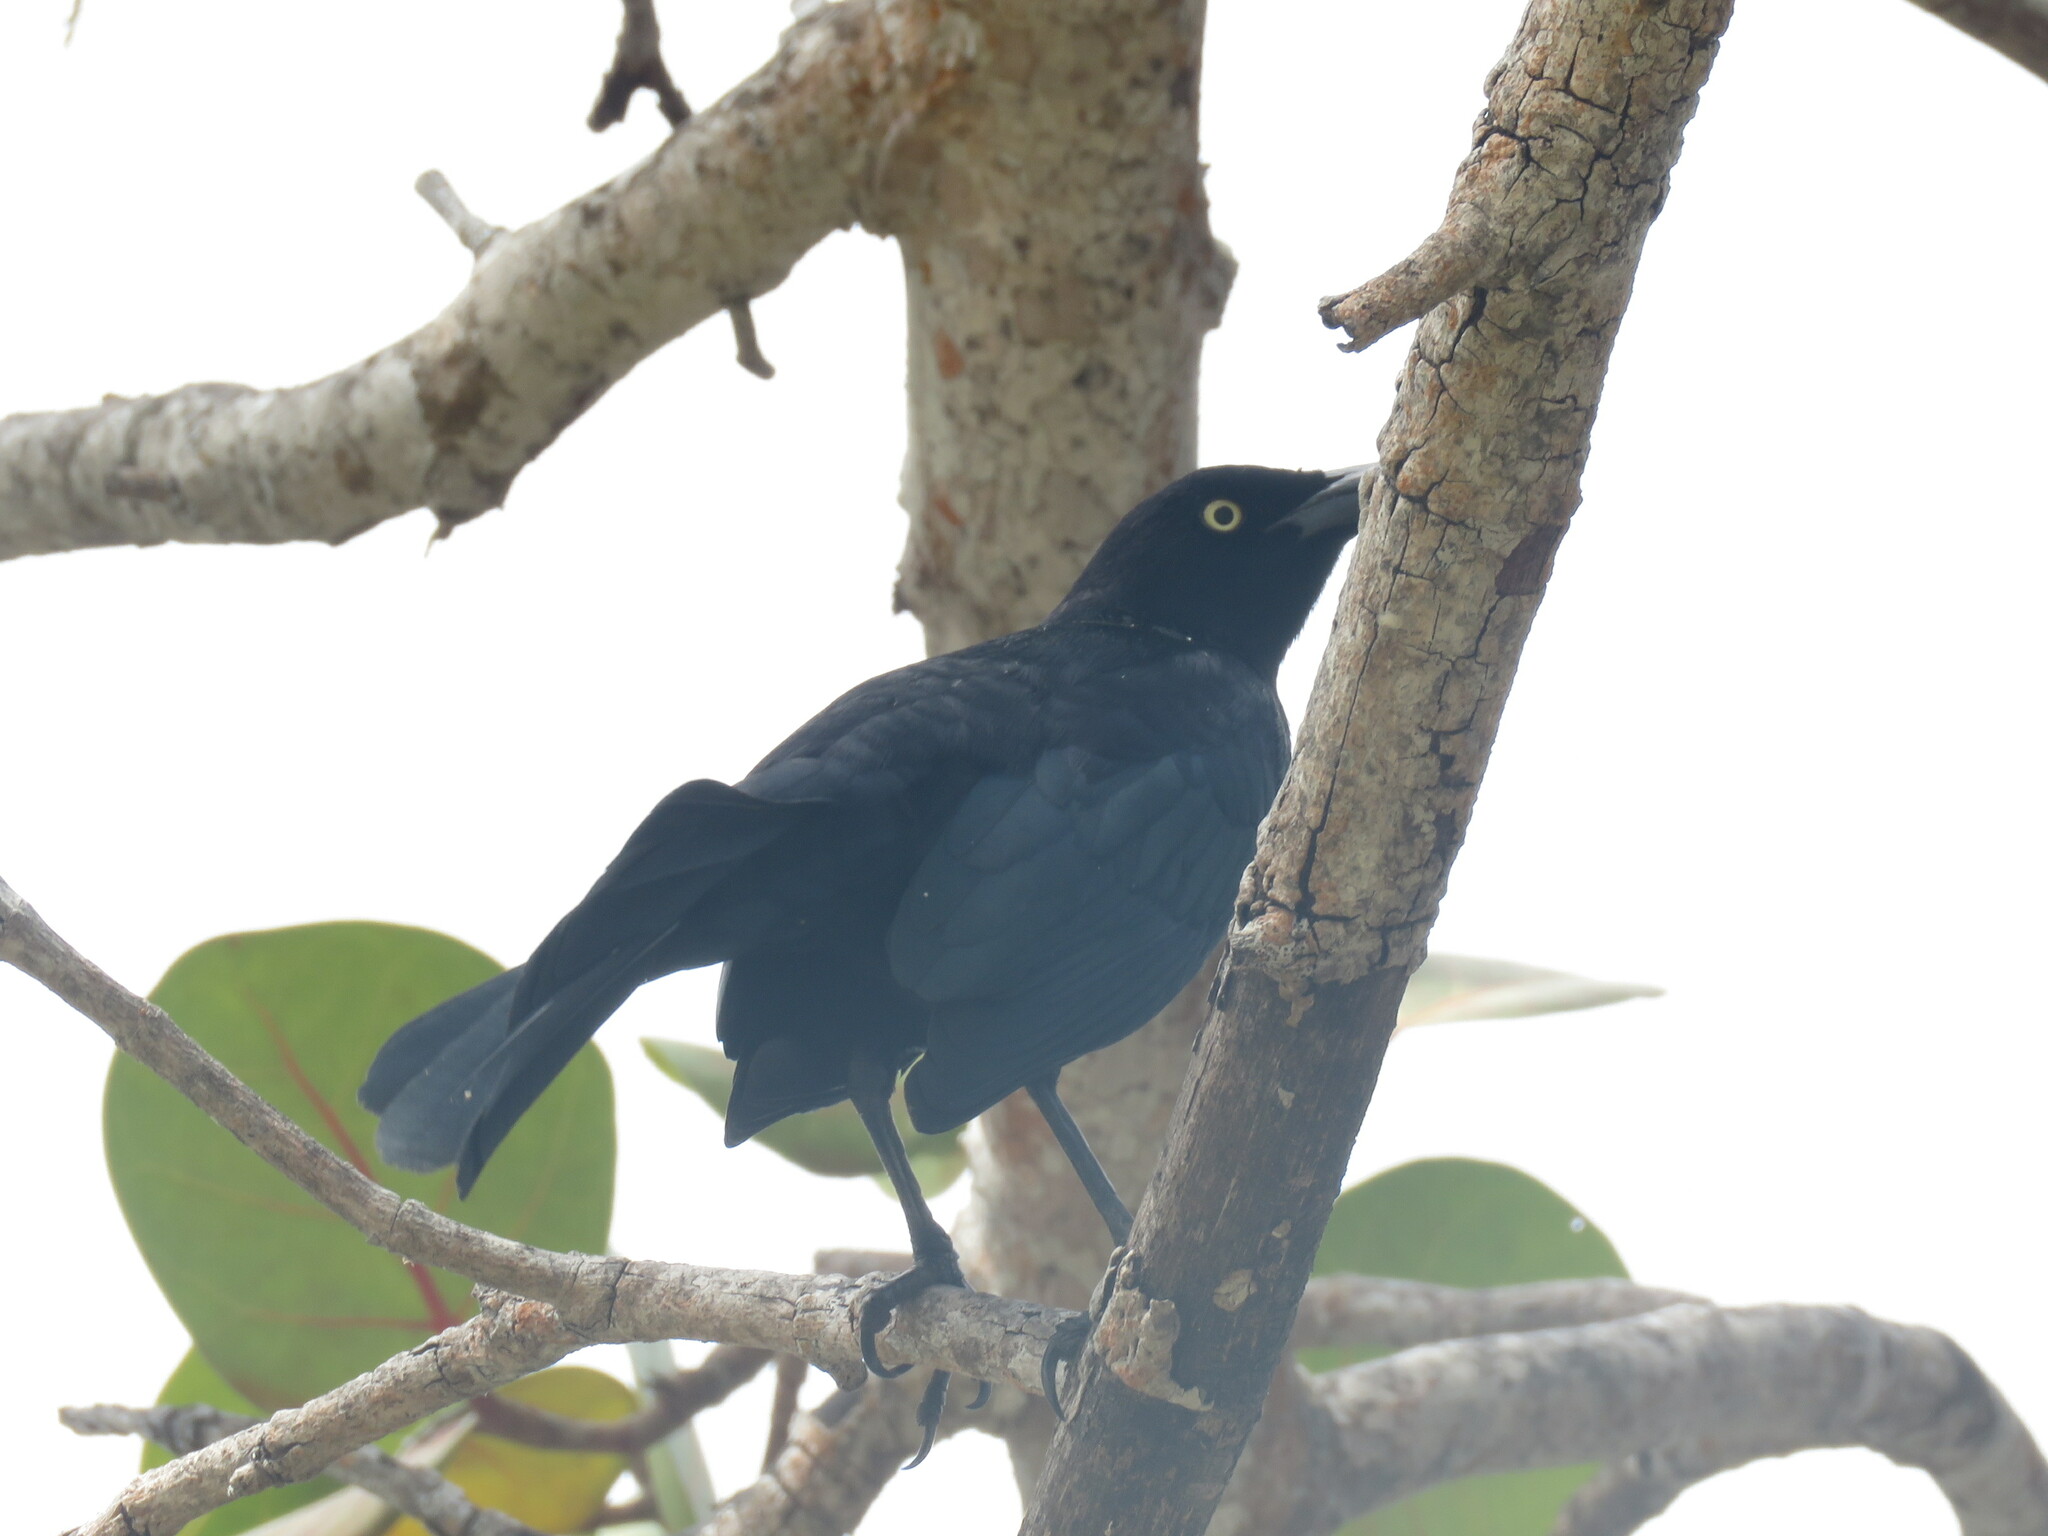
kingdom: Animalia
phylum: Chordata
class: Aves
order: Passeriformes
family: Icteridae
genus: Quiscalus
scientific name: Quiscalus mexicanus
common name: Great-tailed grackle
